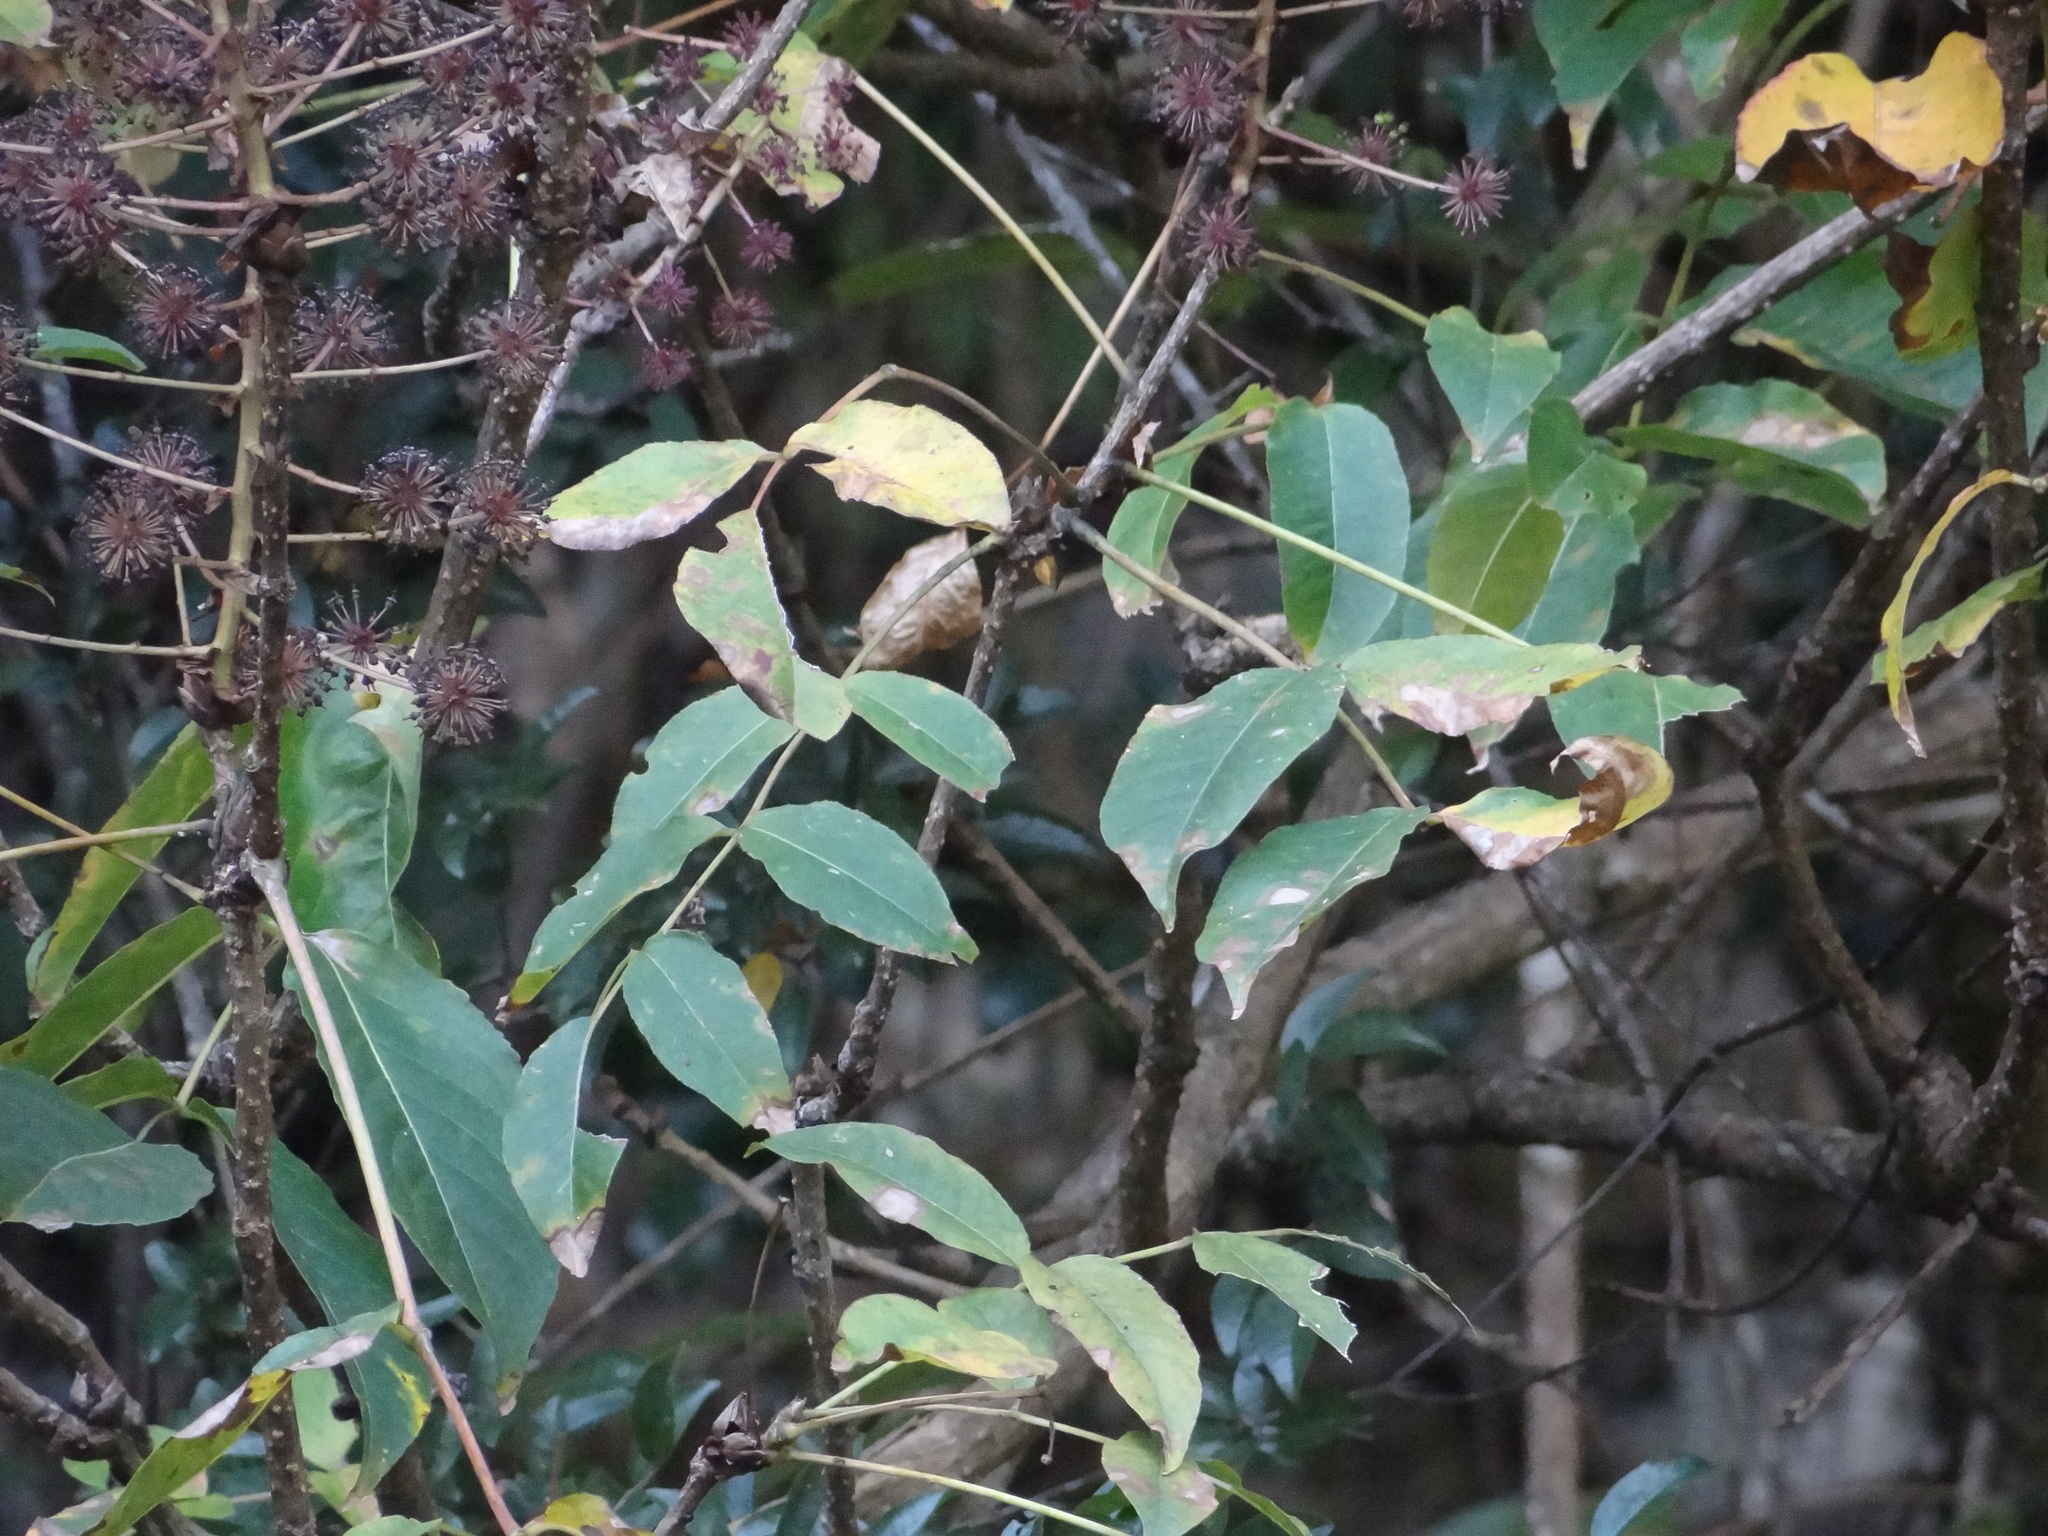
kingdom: Plantae
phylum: Tracheophyta
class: Magnoliopsida
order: Apiales
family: Araliaceae
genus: Aralia
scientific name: Aralia castanopsisicola
